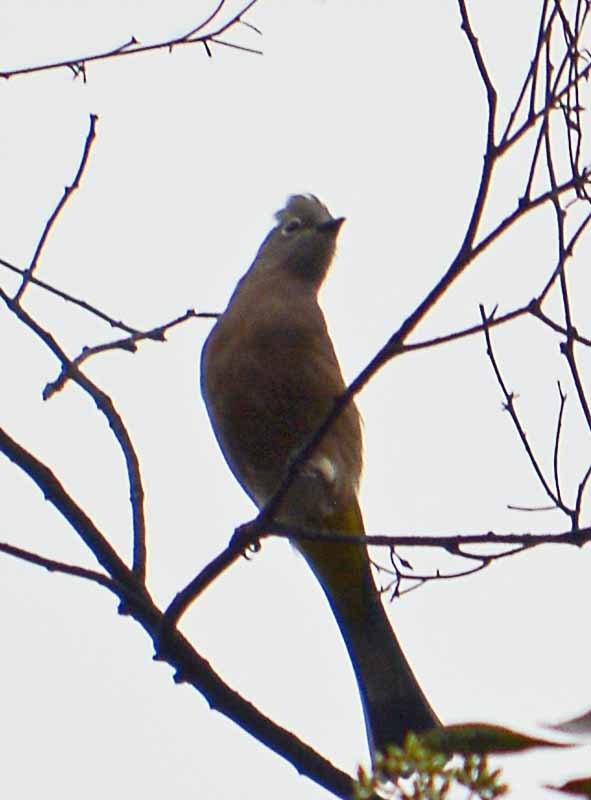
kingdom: Animalia
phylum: Chordata
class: Aves
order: Passeriformes
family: Ptilogonatidae
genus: Ptilogonys
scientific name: Ptilogonys cinereus
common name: Gray silky-flycatcher
